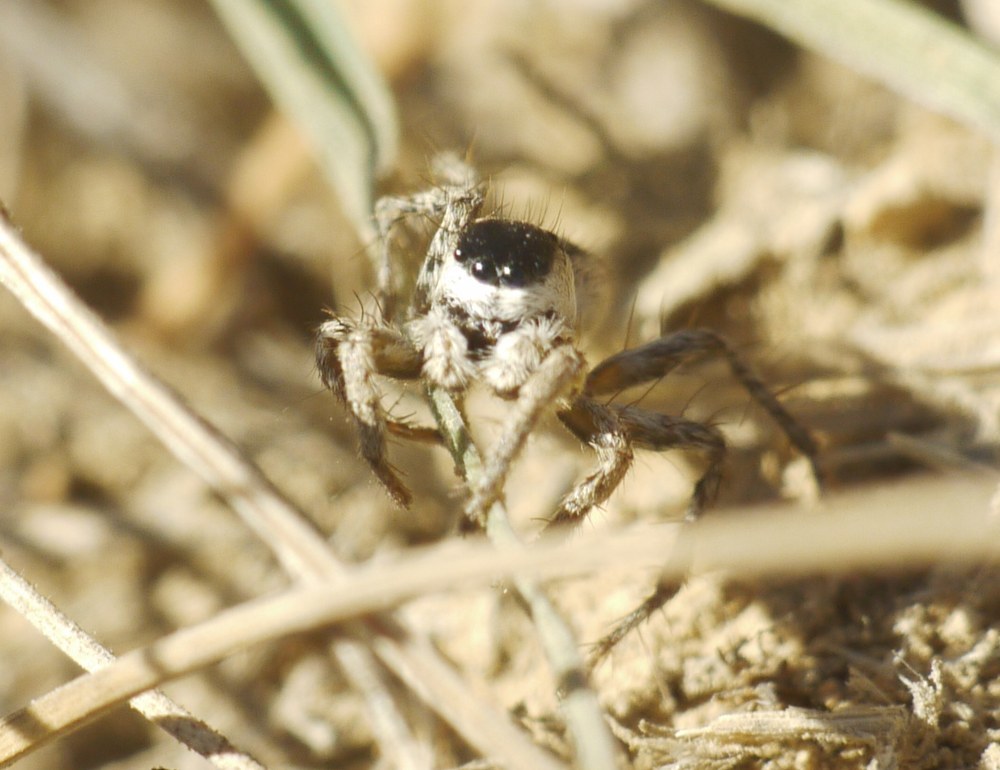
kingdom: Animalia
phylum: Arthropoda
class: Arachnida
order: Araneae
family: Salticidae
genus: Aelurillus
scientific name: Aelurillus m-nigrum
